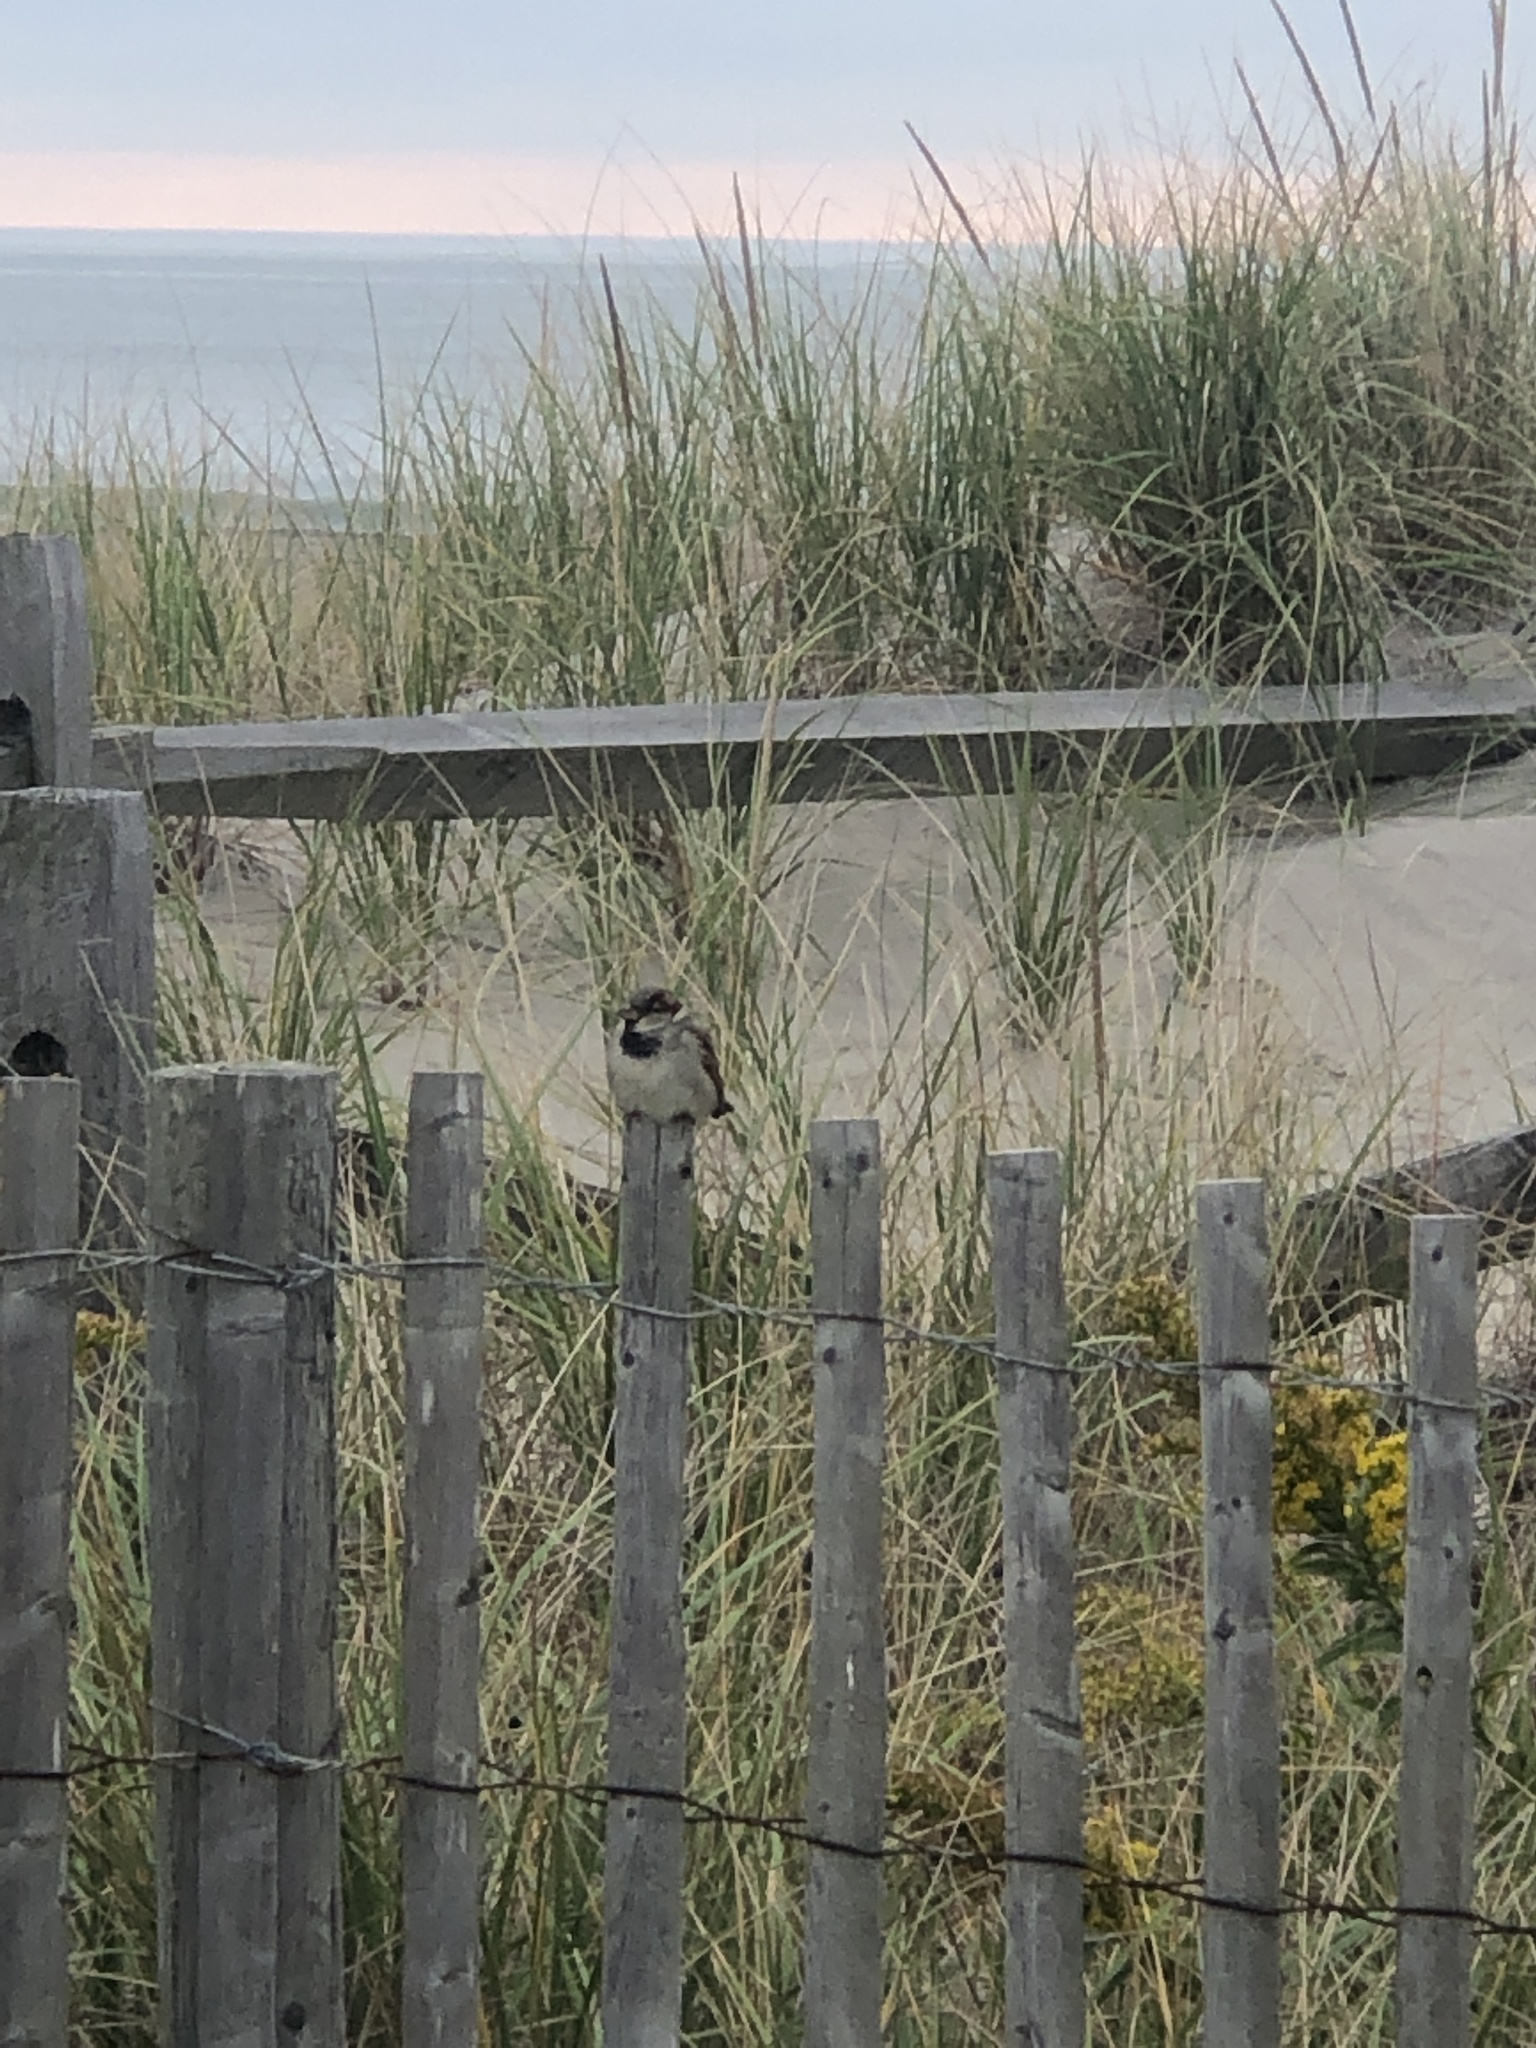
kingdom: Animalia
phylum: Chordata
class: Aves
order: Passeriformes
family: Passeridae
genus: Passer
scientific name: Passer domesticus
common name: House sparrow
